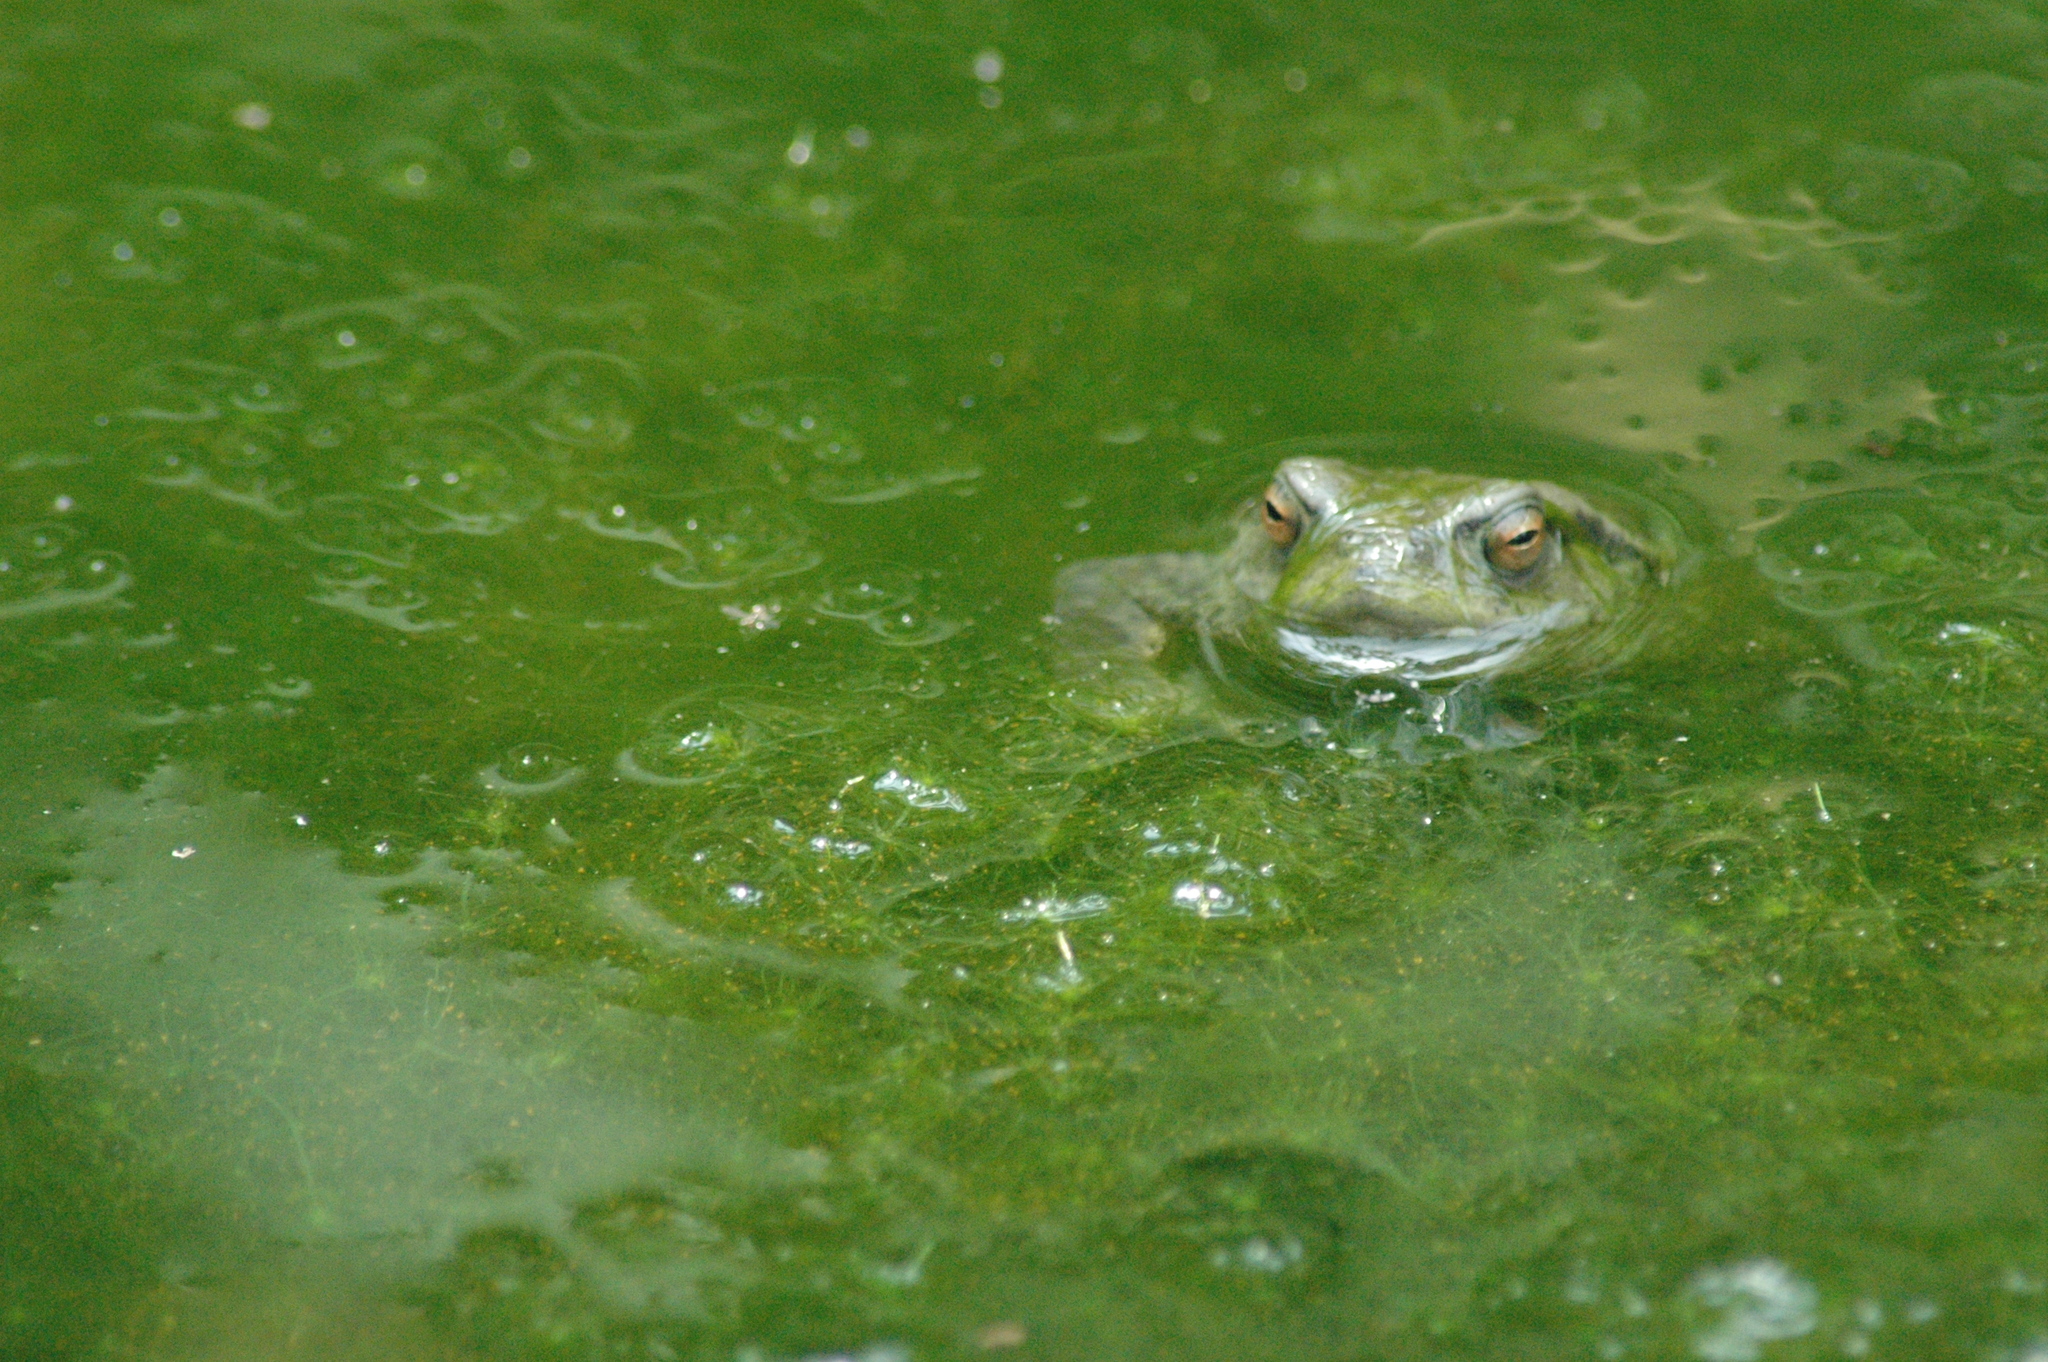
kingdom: Animalia
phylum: Chordata
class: Amphibia
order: Anura
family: Bufonidae
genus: Bufo
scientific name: Bufo bankorensis
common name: Bankor toad
